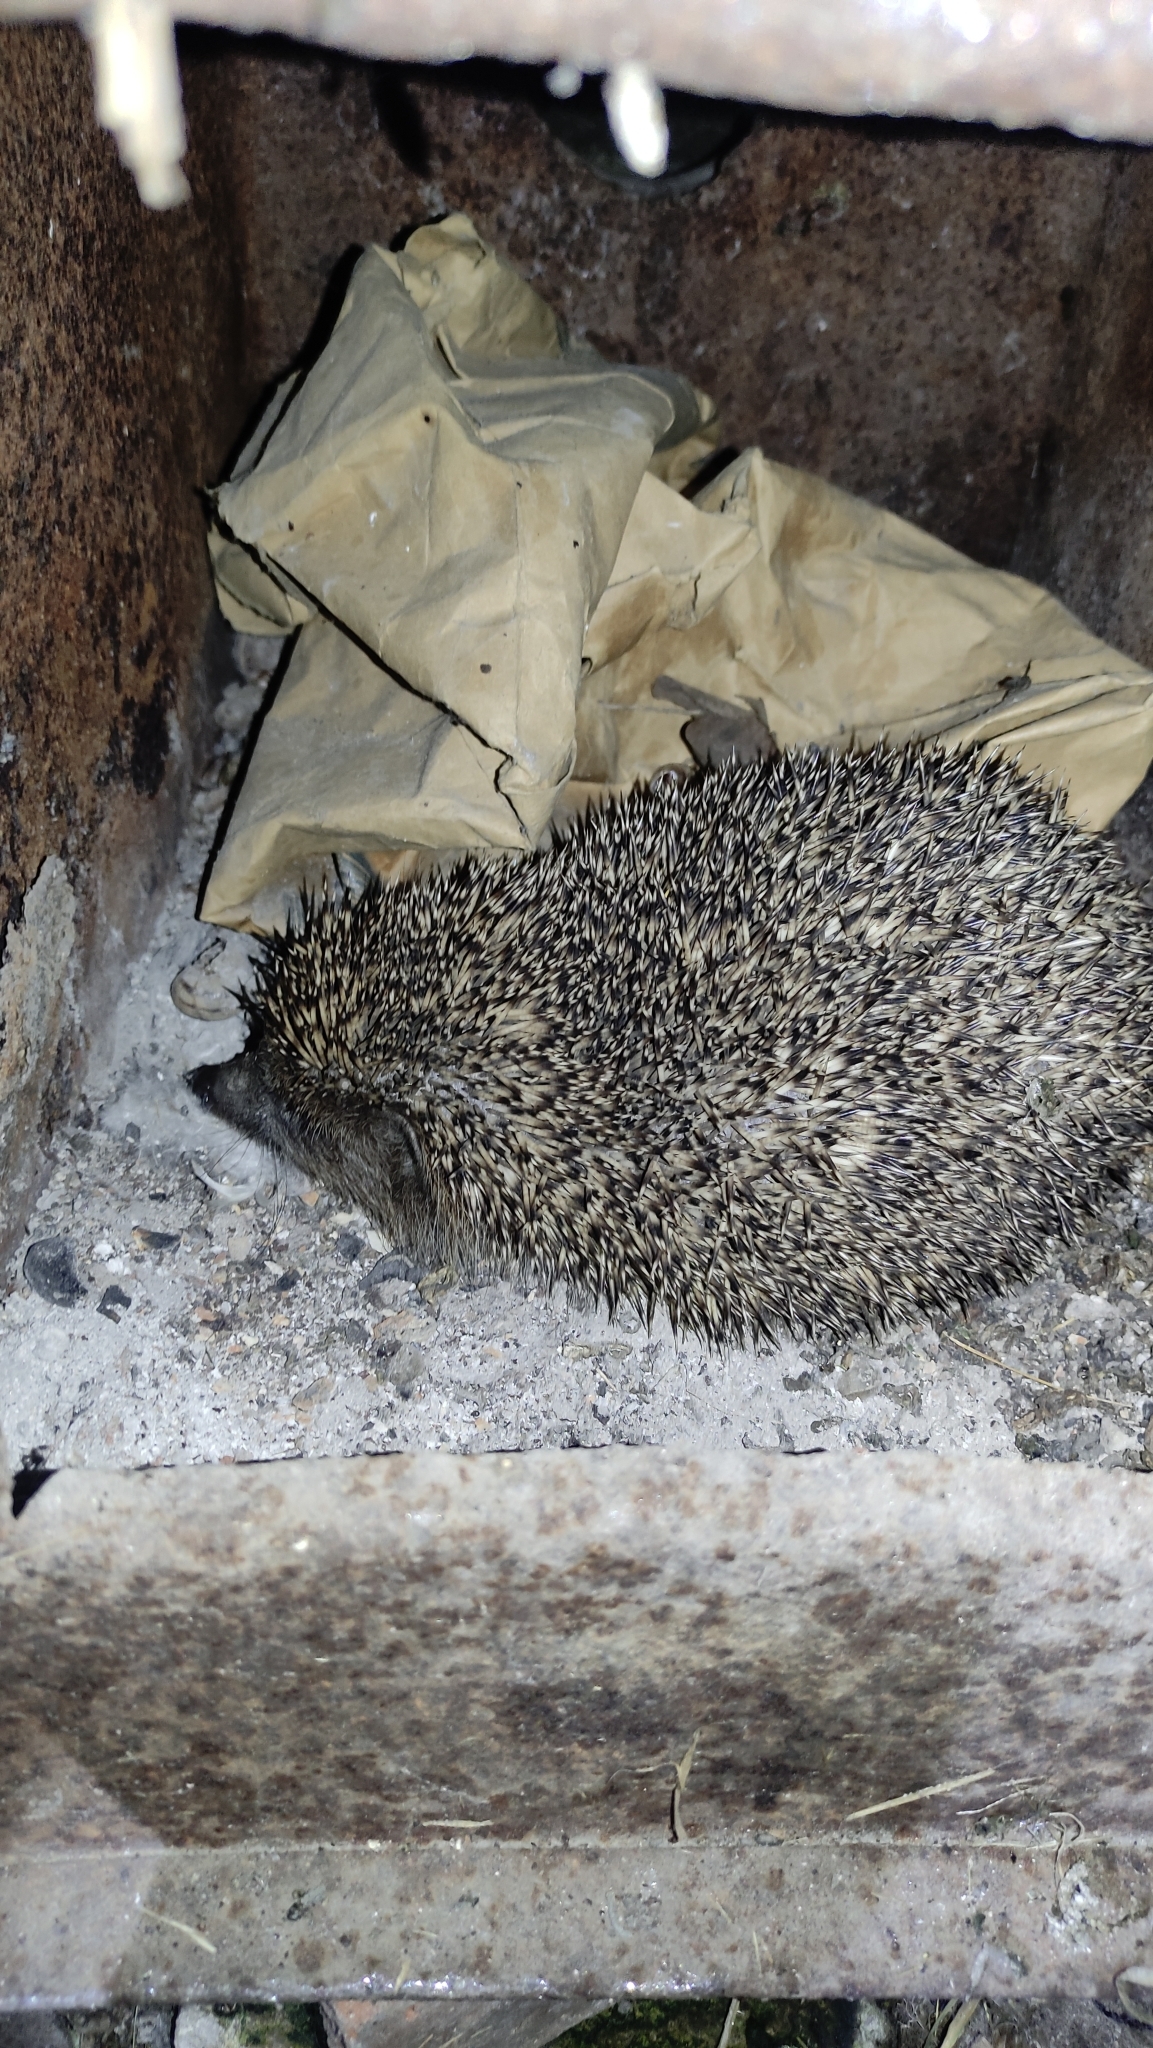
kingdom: Animalia
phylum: Chordata
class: Mammalia
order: Erinaceomorpha
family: Erinaceidae
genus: Erinaceus
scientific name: Erinaceus roumanicus
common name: Northern white-breasted hedgehog
